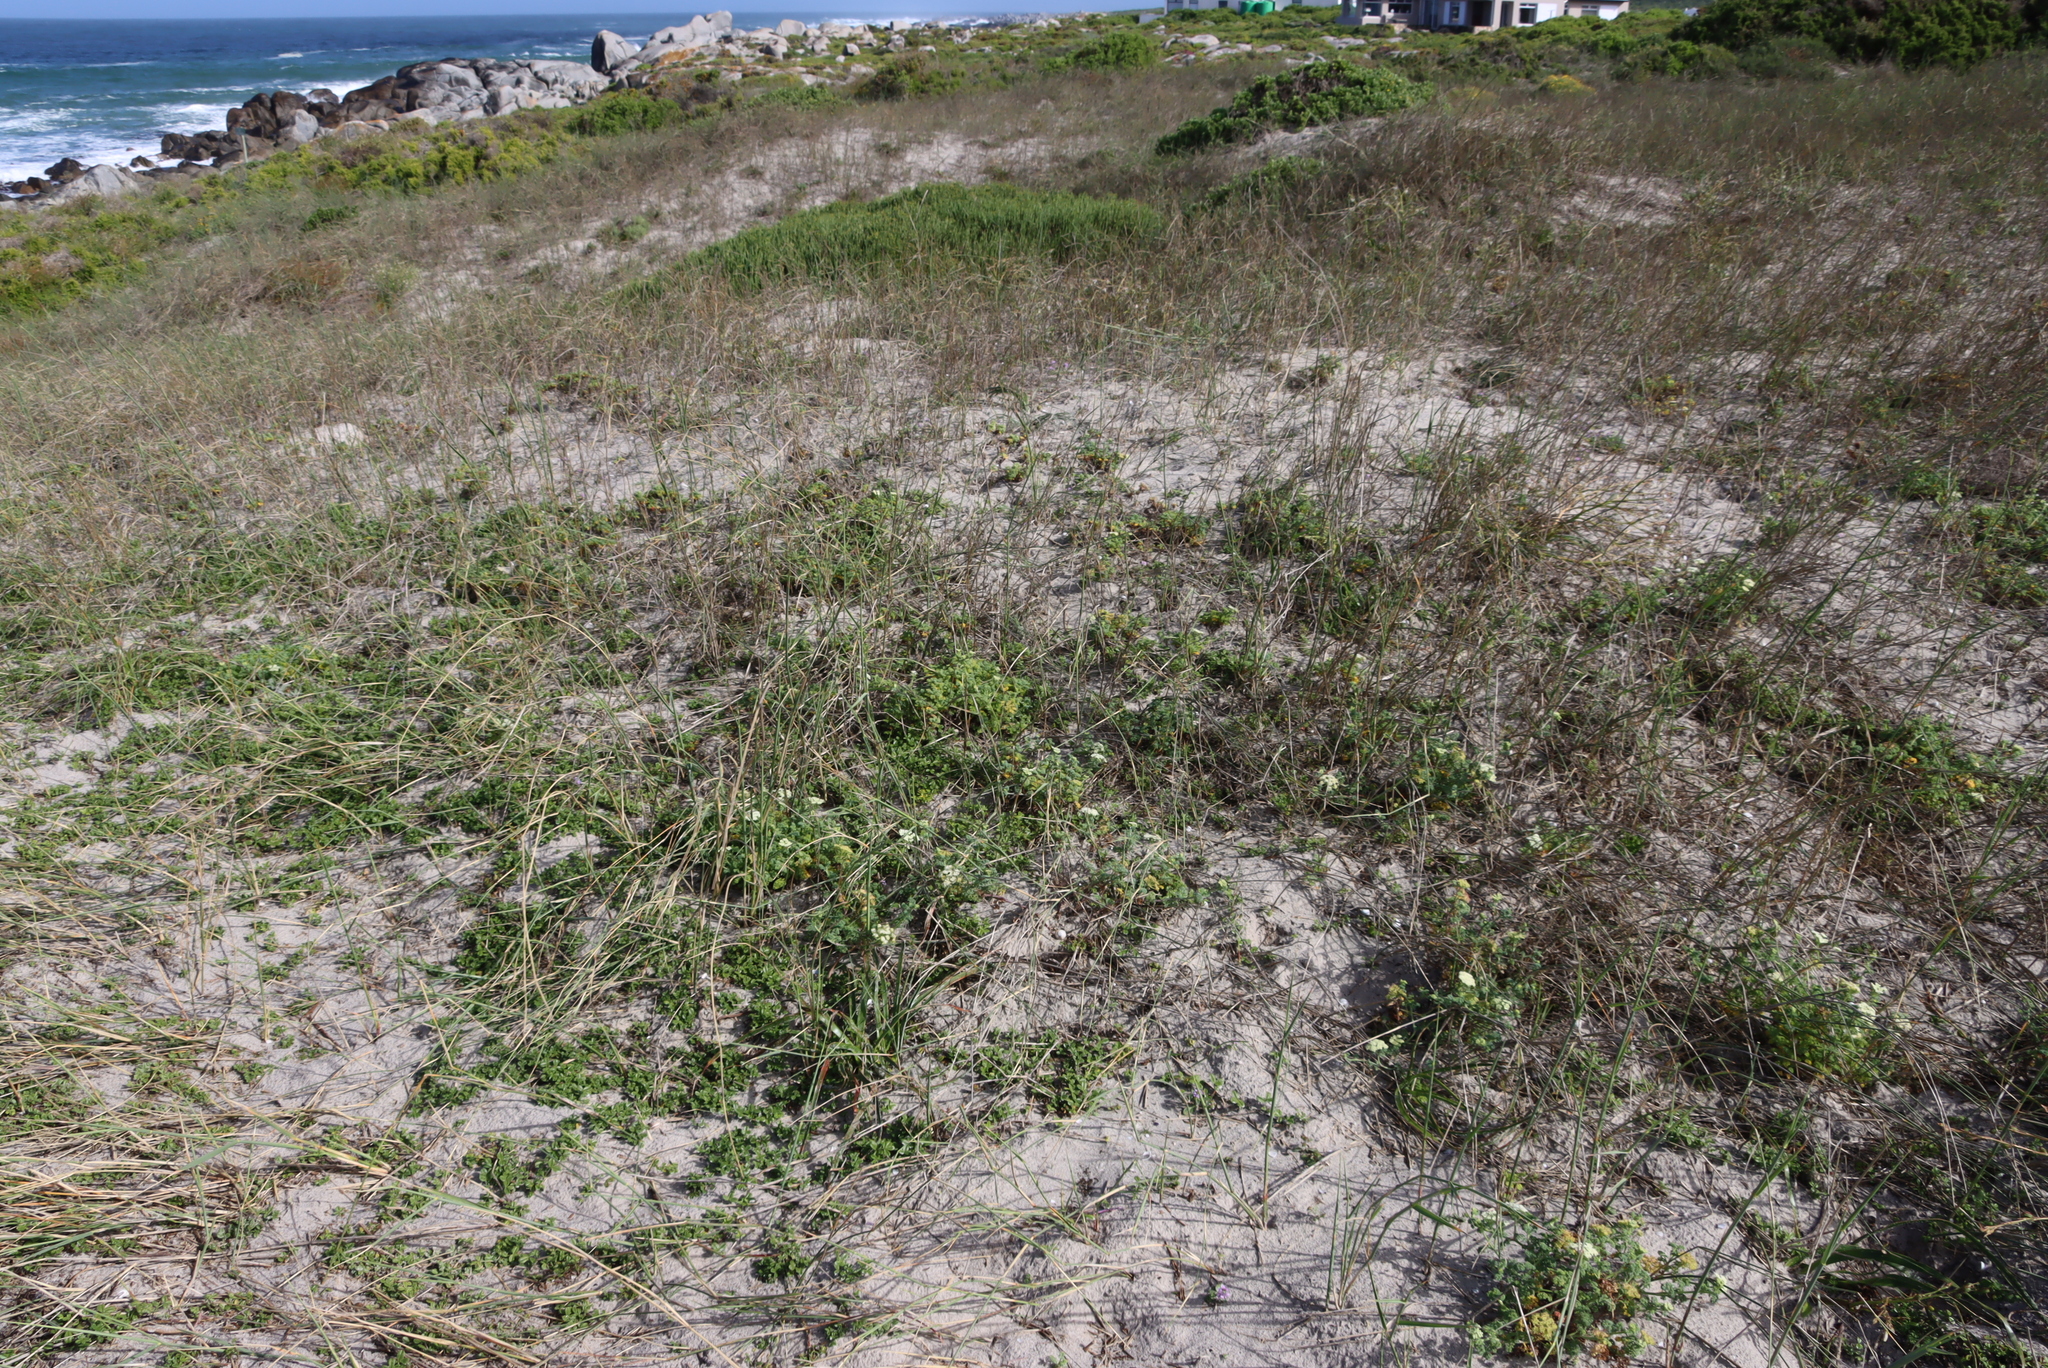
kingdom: Plantae
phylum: Tracheophyta
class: Magnoliopsida
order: Fabales
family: Fabaceae
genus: Psoralea
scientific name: Psoralea repens
